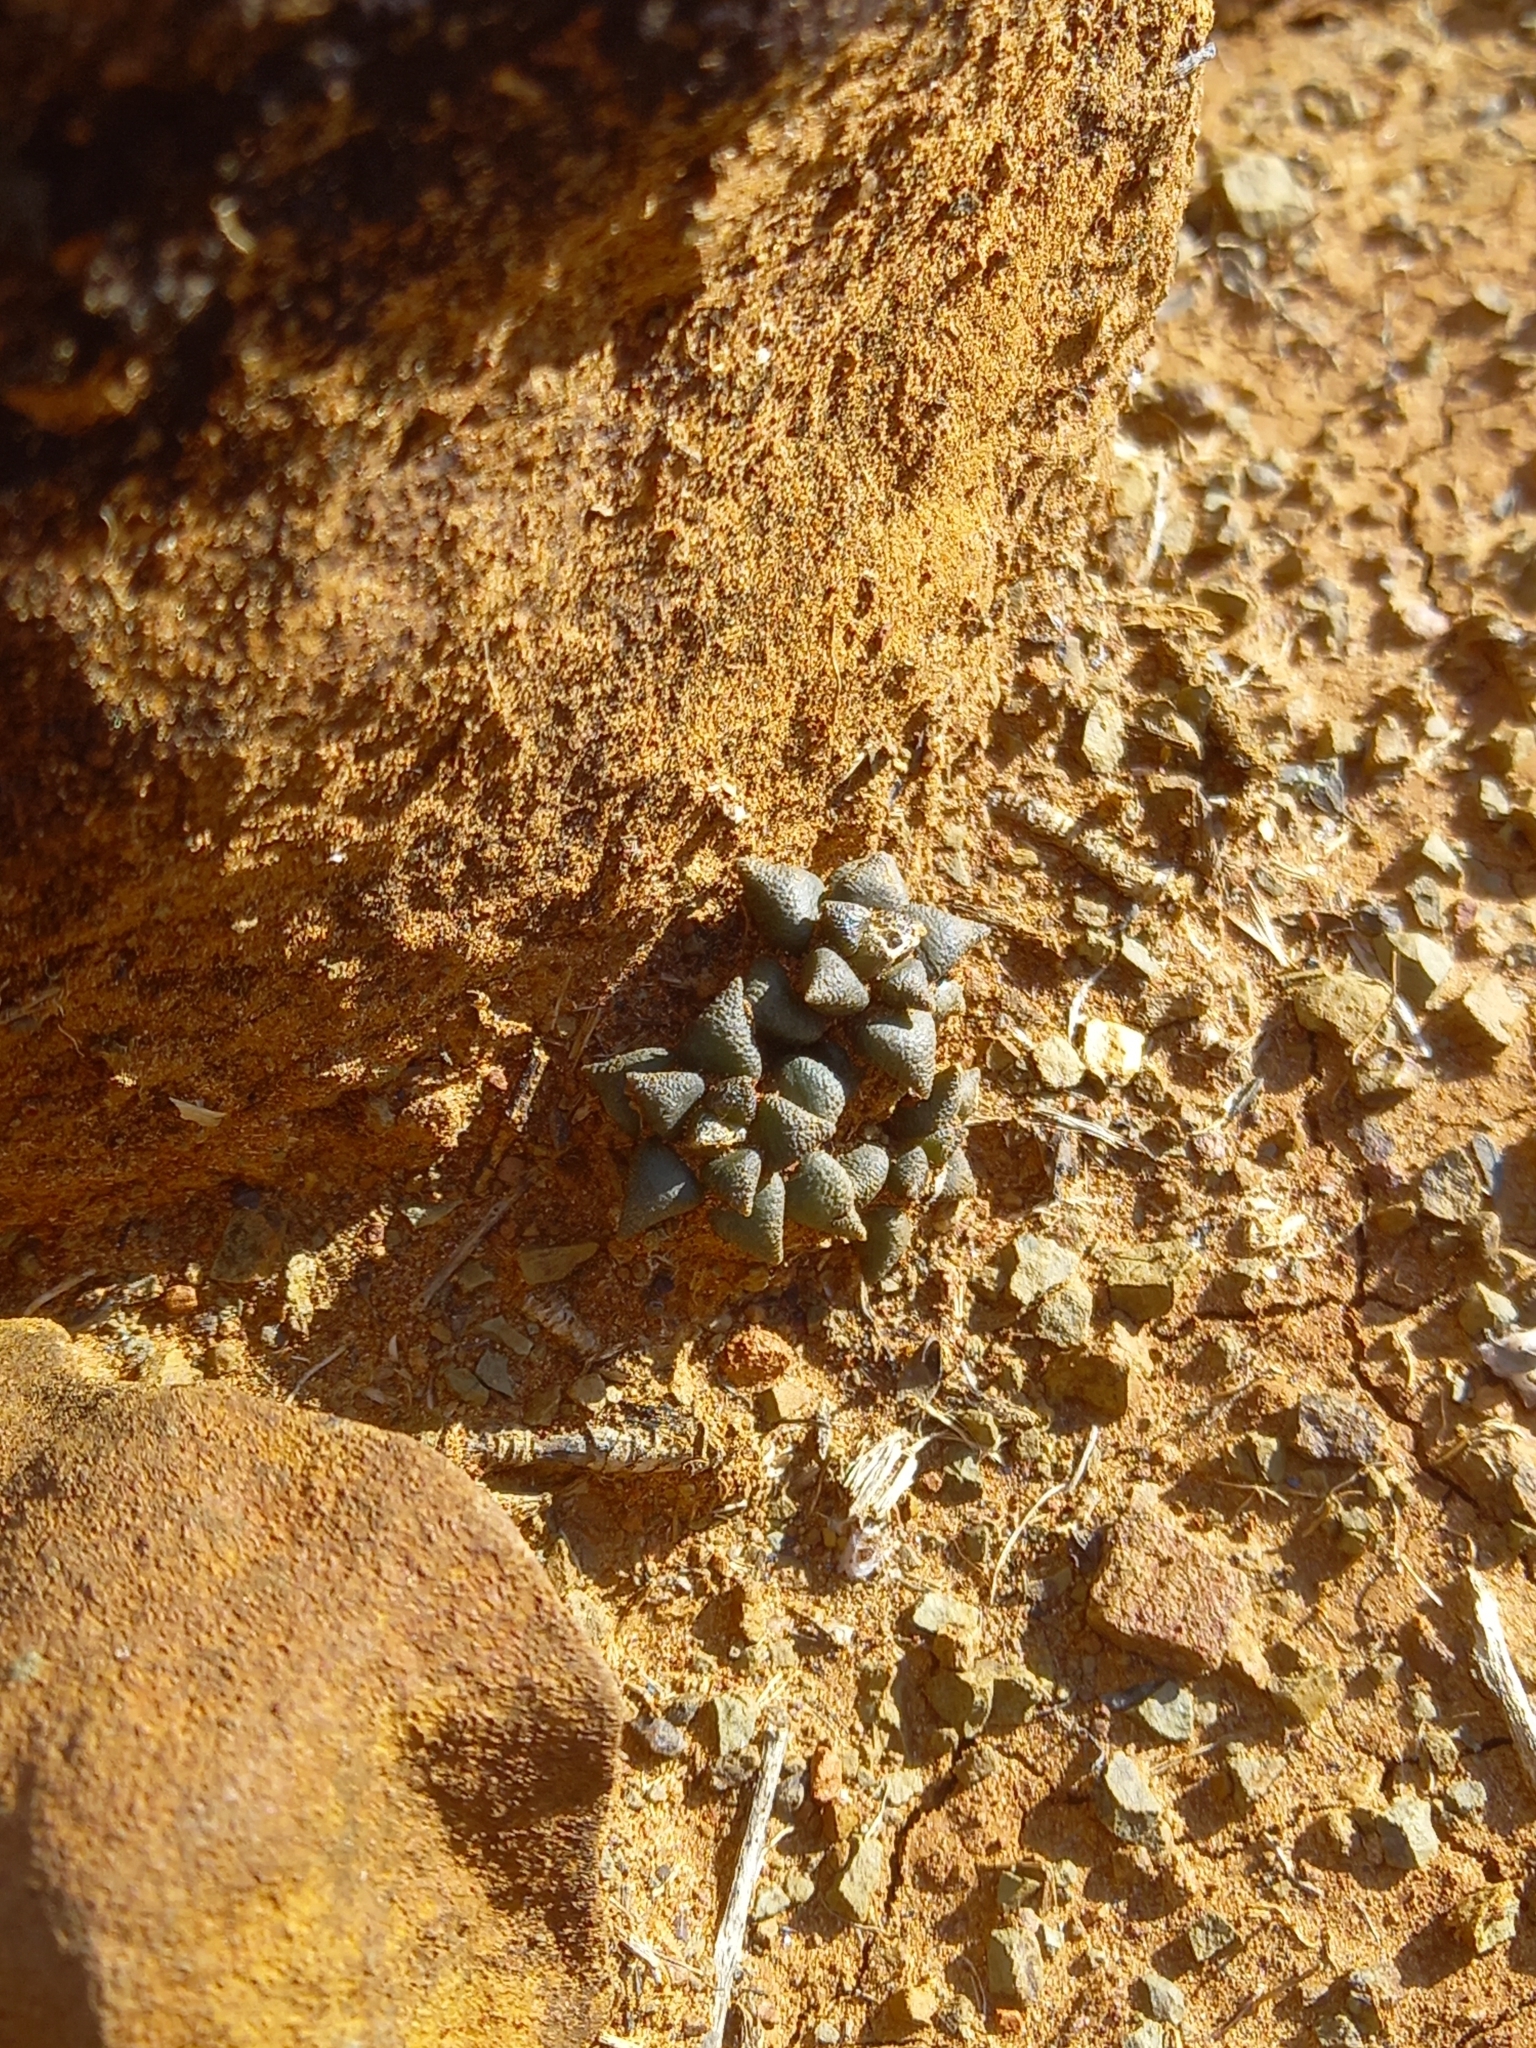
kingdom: Plantae
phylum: Tracheophyta
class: Magnoliopsida
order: Caryophyllales
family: Anacampserotaceae
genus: Anacampseros
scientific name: Anacampseros arachnoides
